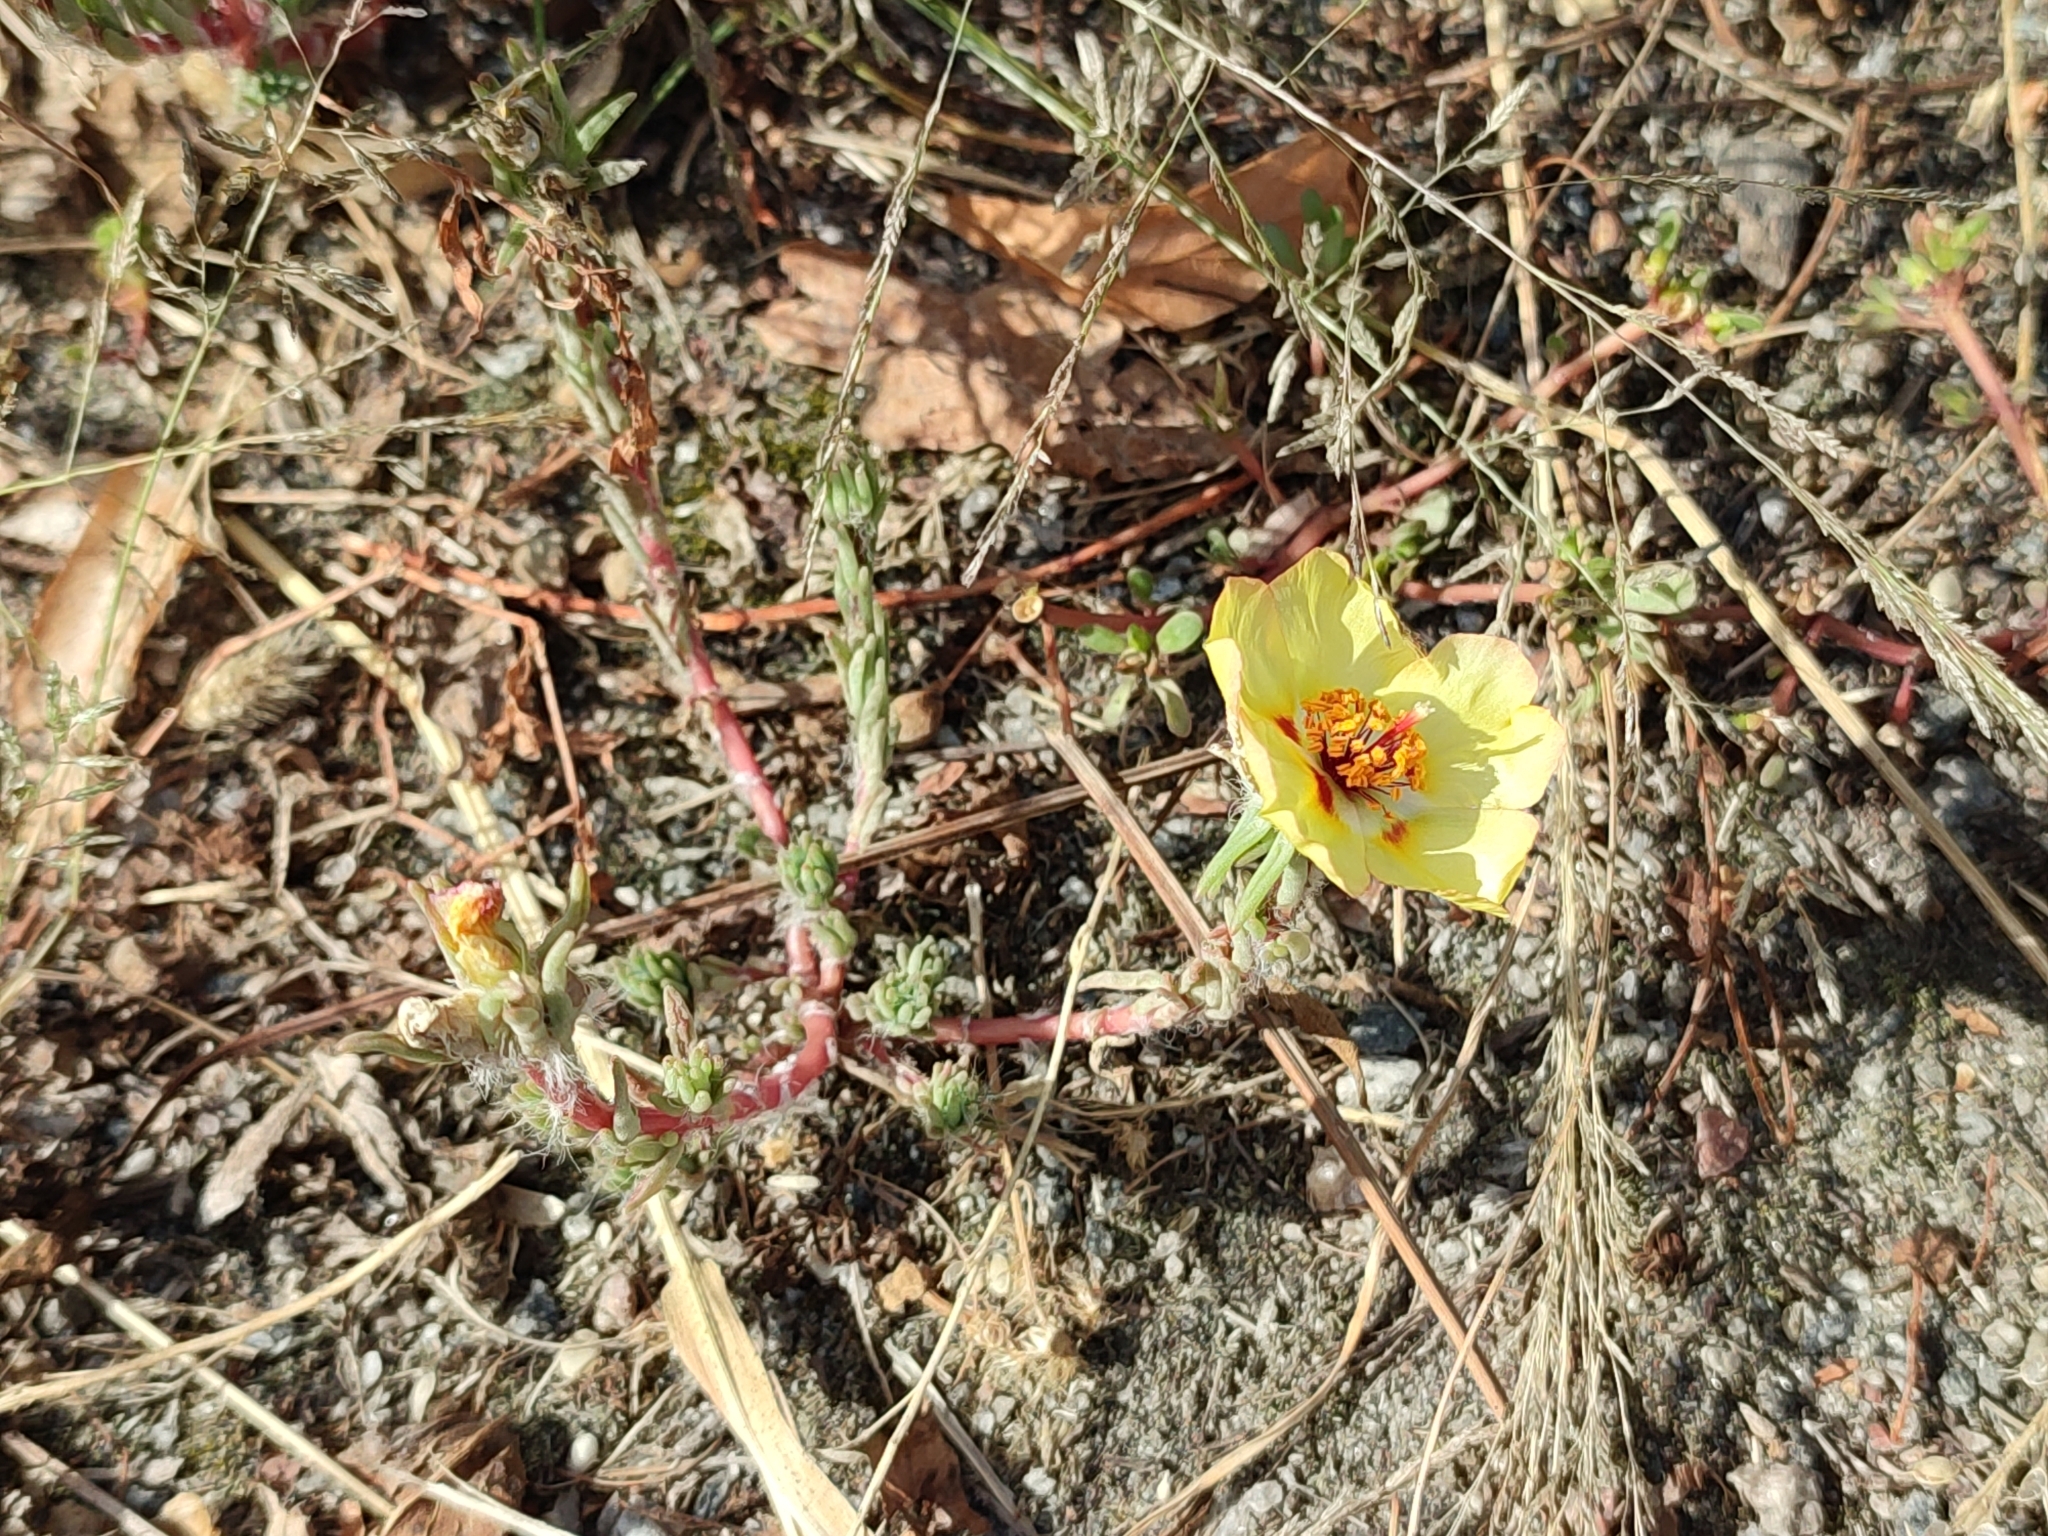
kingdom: Plantae
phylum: Tracheophyta
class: Magnoliopsida
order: Caryophyllales
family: Portulacaceae
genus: Portulaca
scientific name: Portulaca grandiflora
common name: Moss-rose
